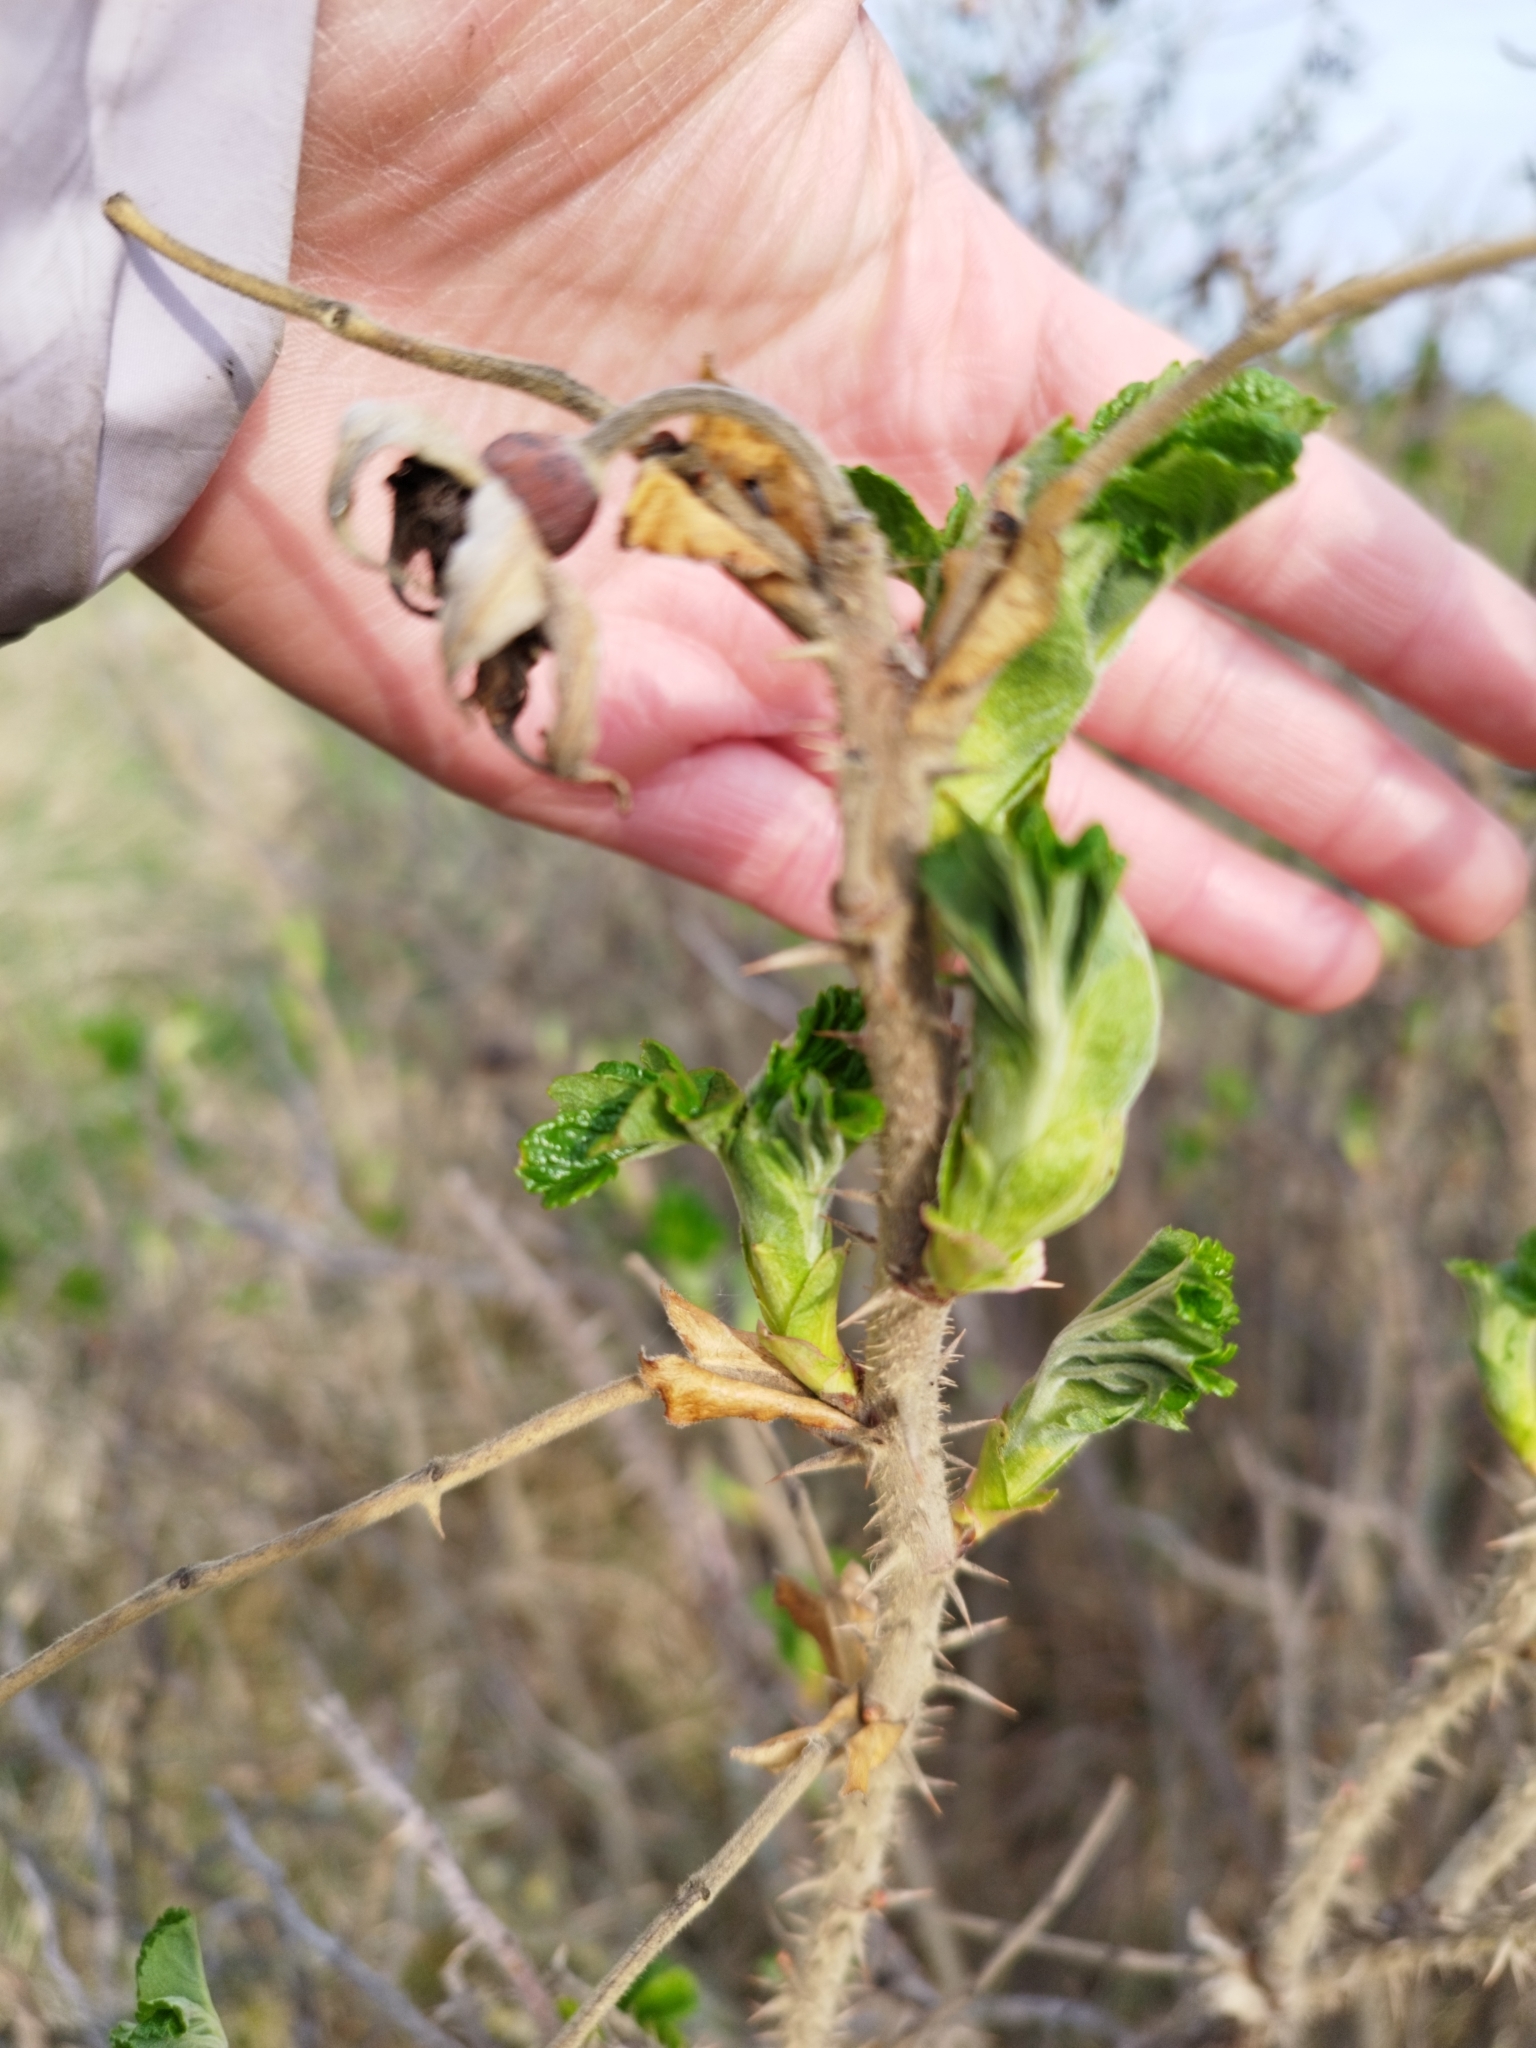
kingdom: Plantae
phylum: Tracheophyta
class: Magnoliopsida
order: Rosales
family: Rosaceae
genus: Rosa
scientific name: Rosa rugosa
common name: Japanese rose
